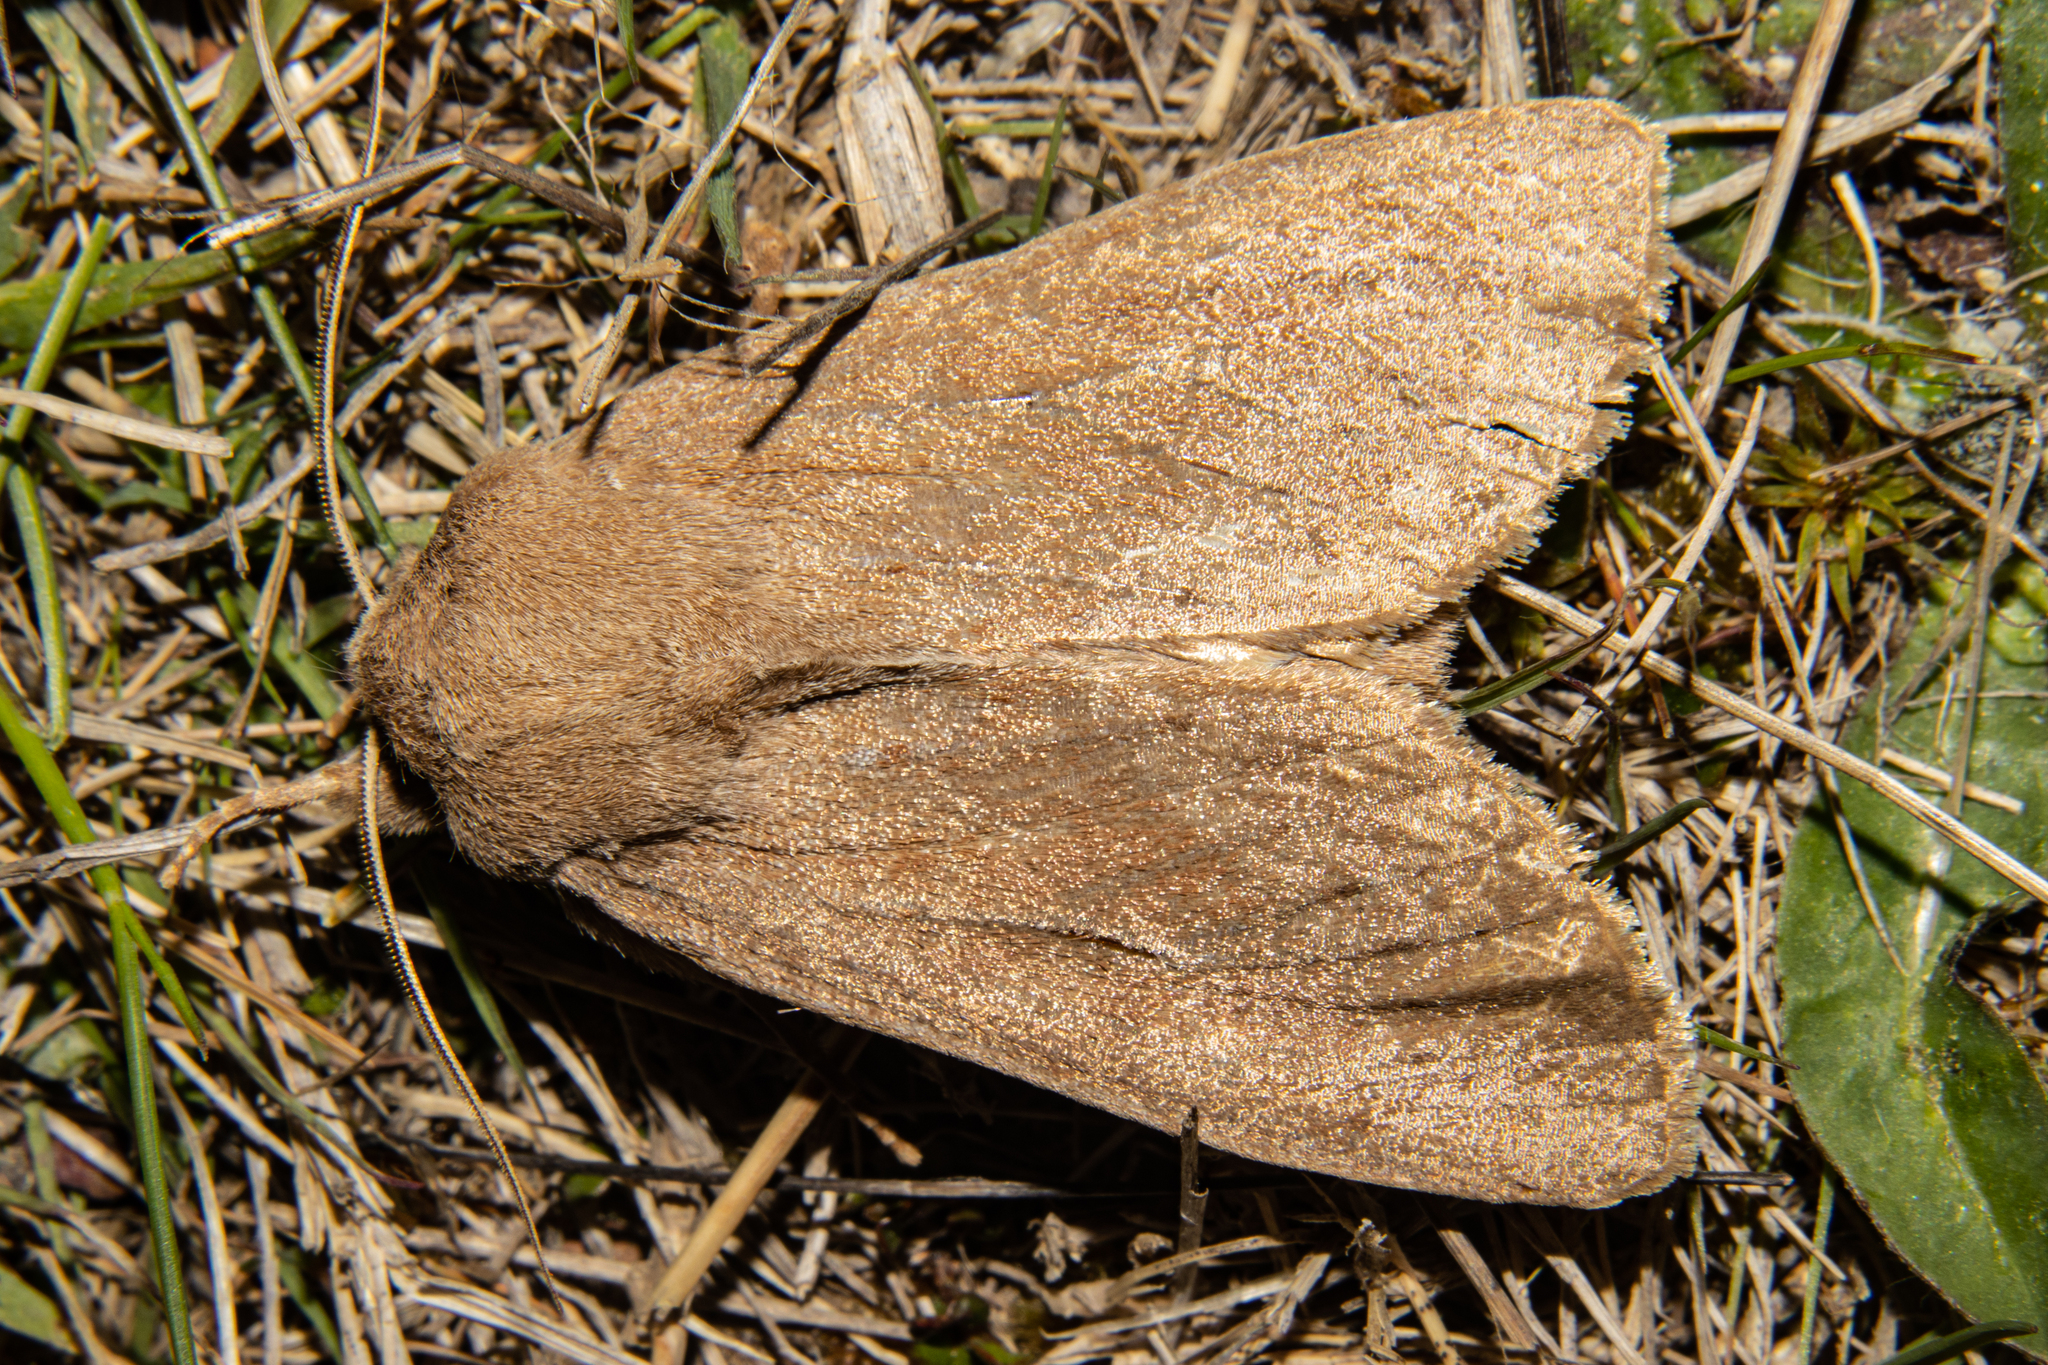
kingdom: Animalia
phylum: Arthropoda
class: Insecta
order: Lepidoptera
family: Noctuidae
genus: Ichneutica
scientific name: Ichneutica nullifera
